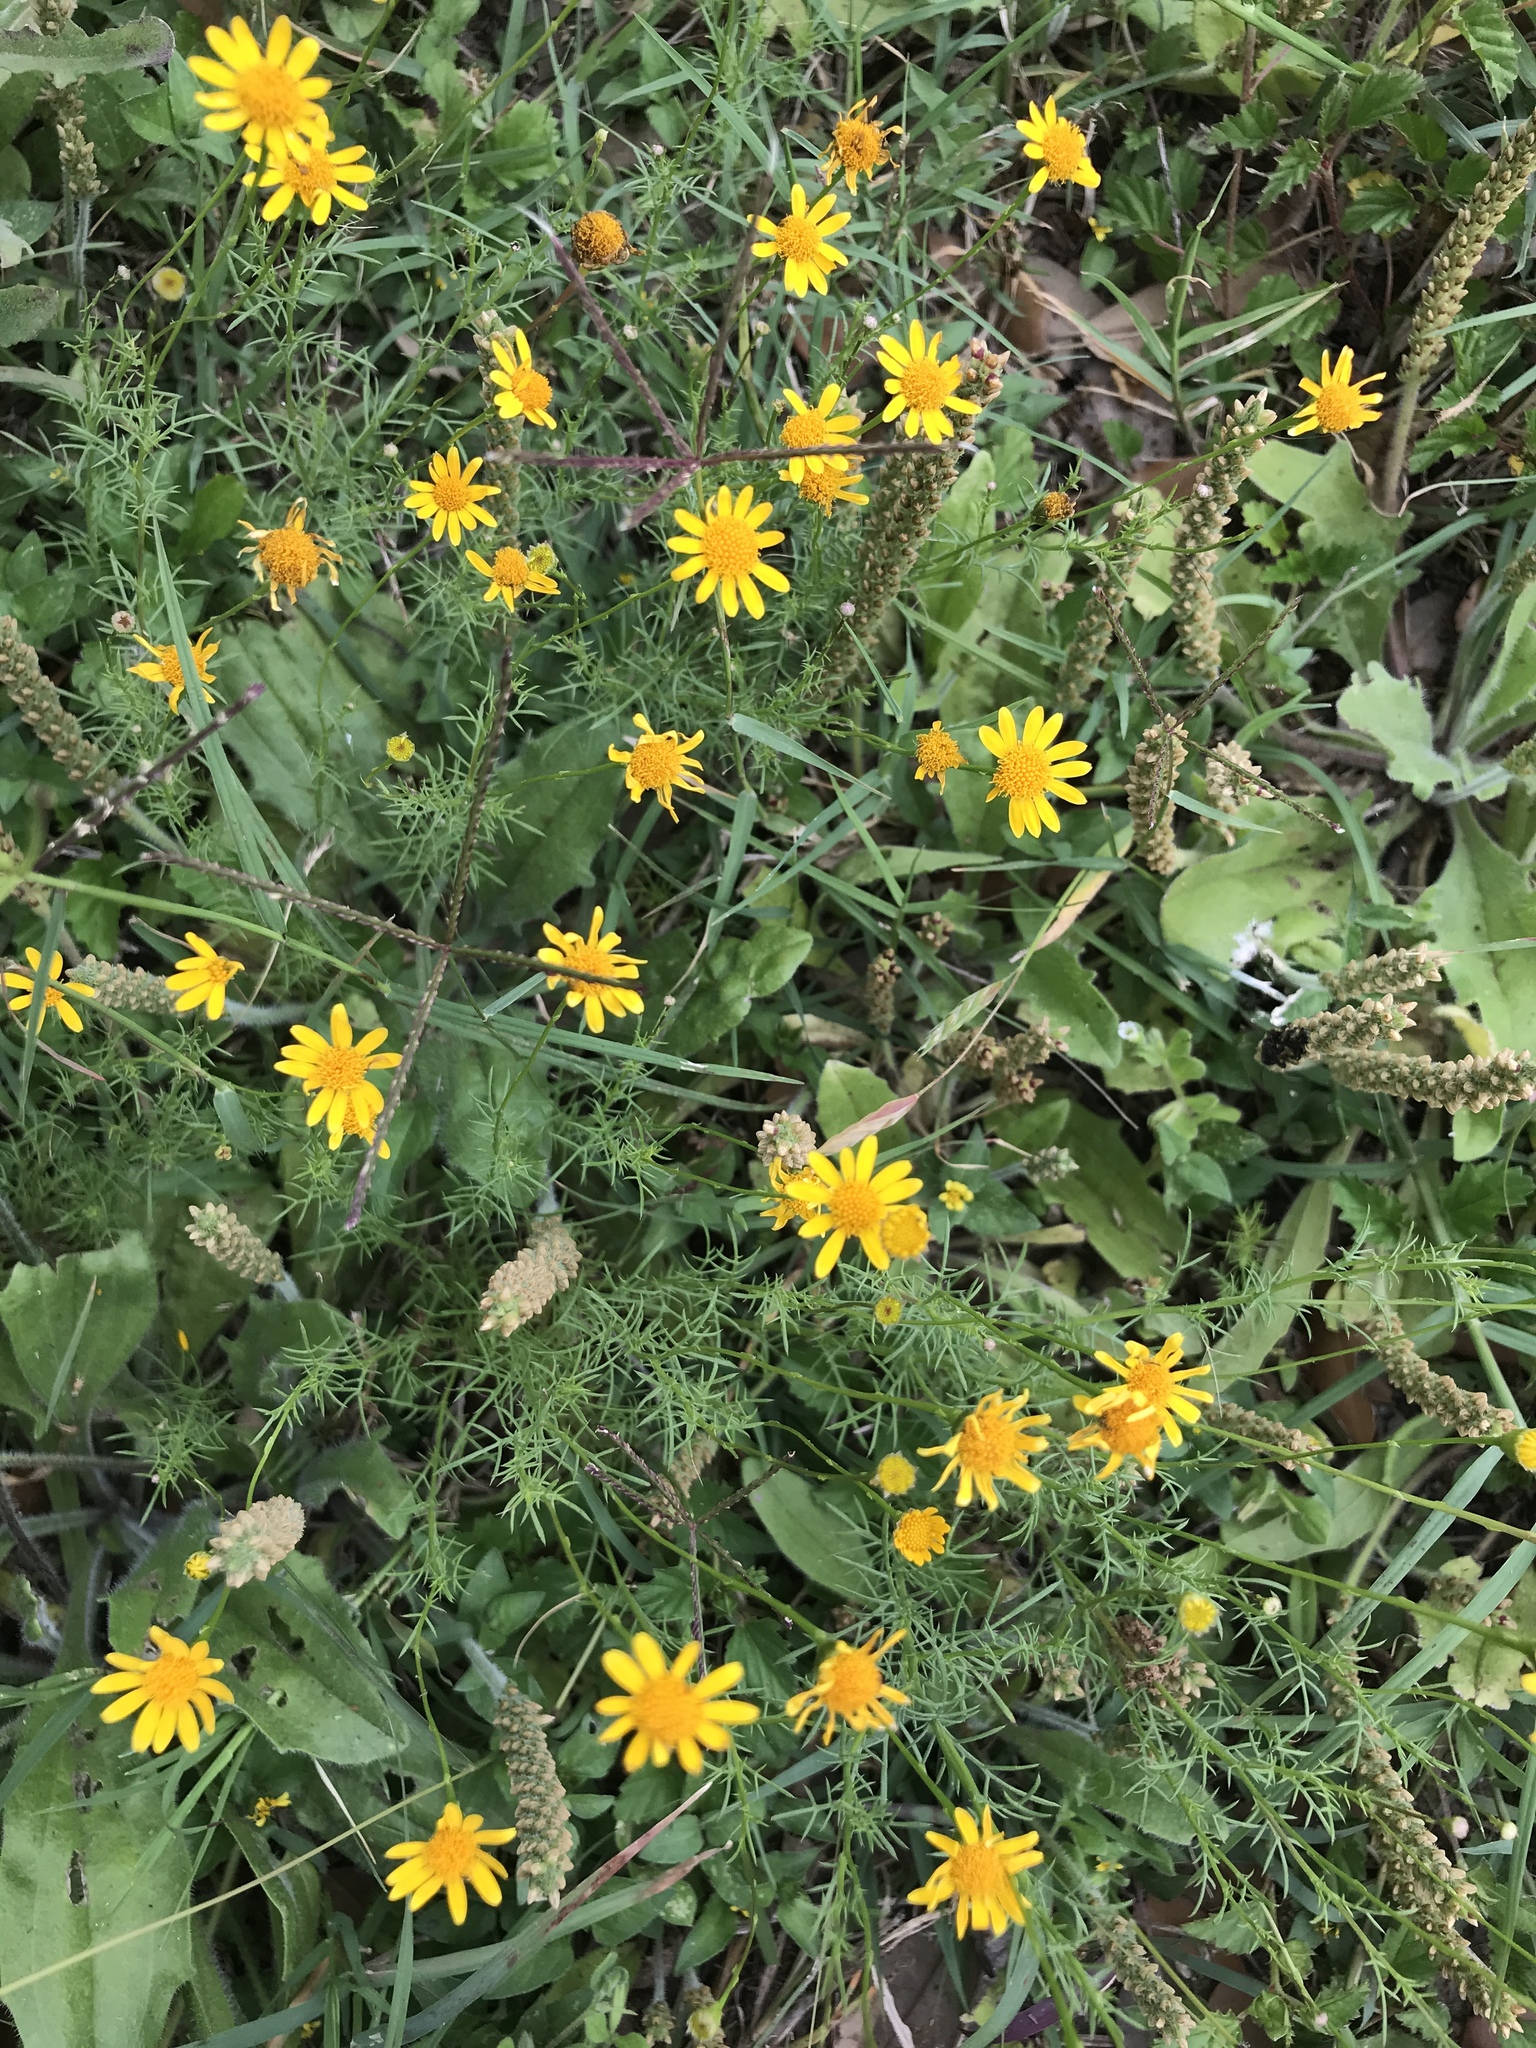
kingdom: Plantae
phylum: Tracheophyta
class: Magnoliopsida
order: Asterales
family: Asteraceae
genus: Thymophylla
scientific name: Thymophylla pentachaeta
